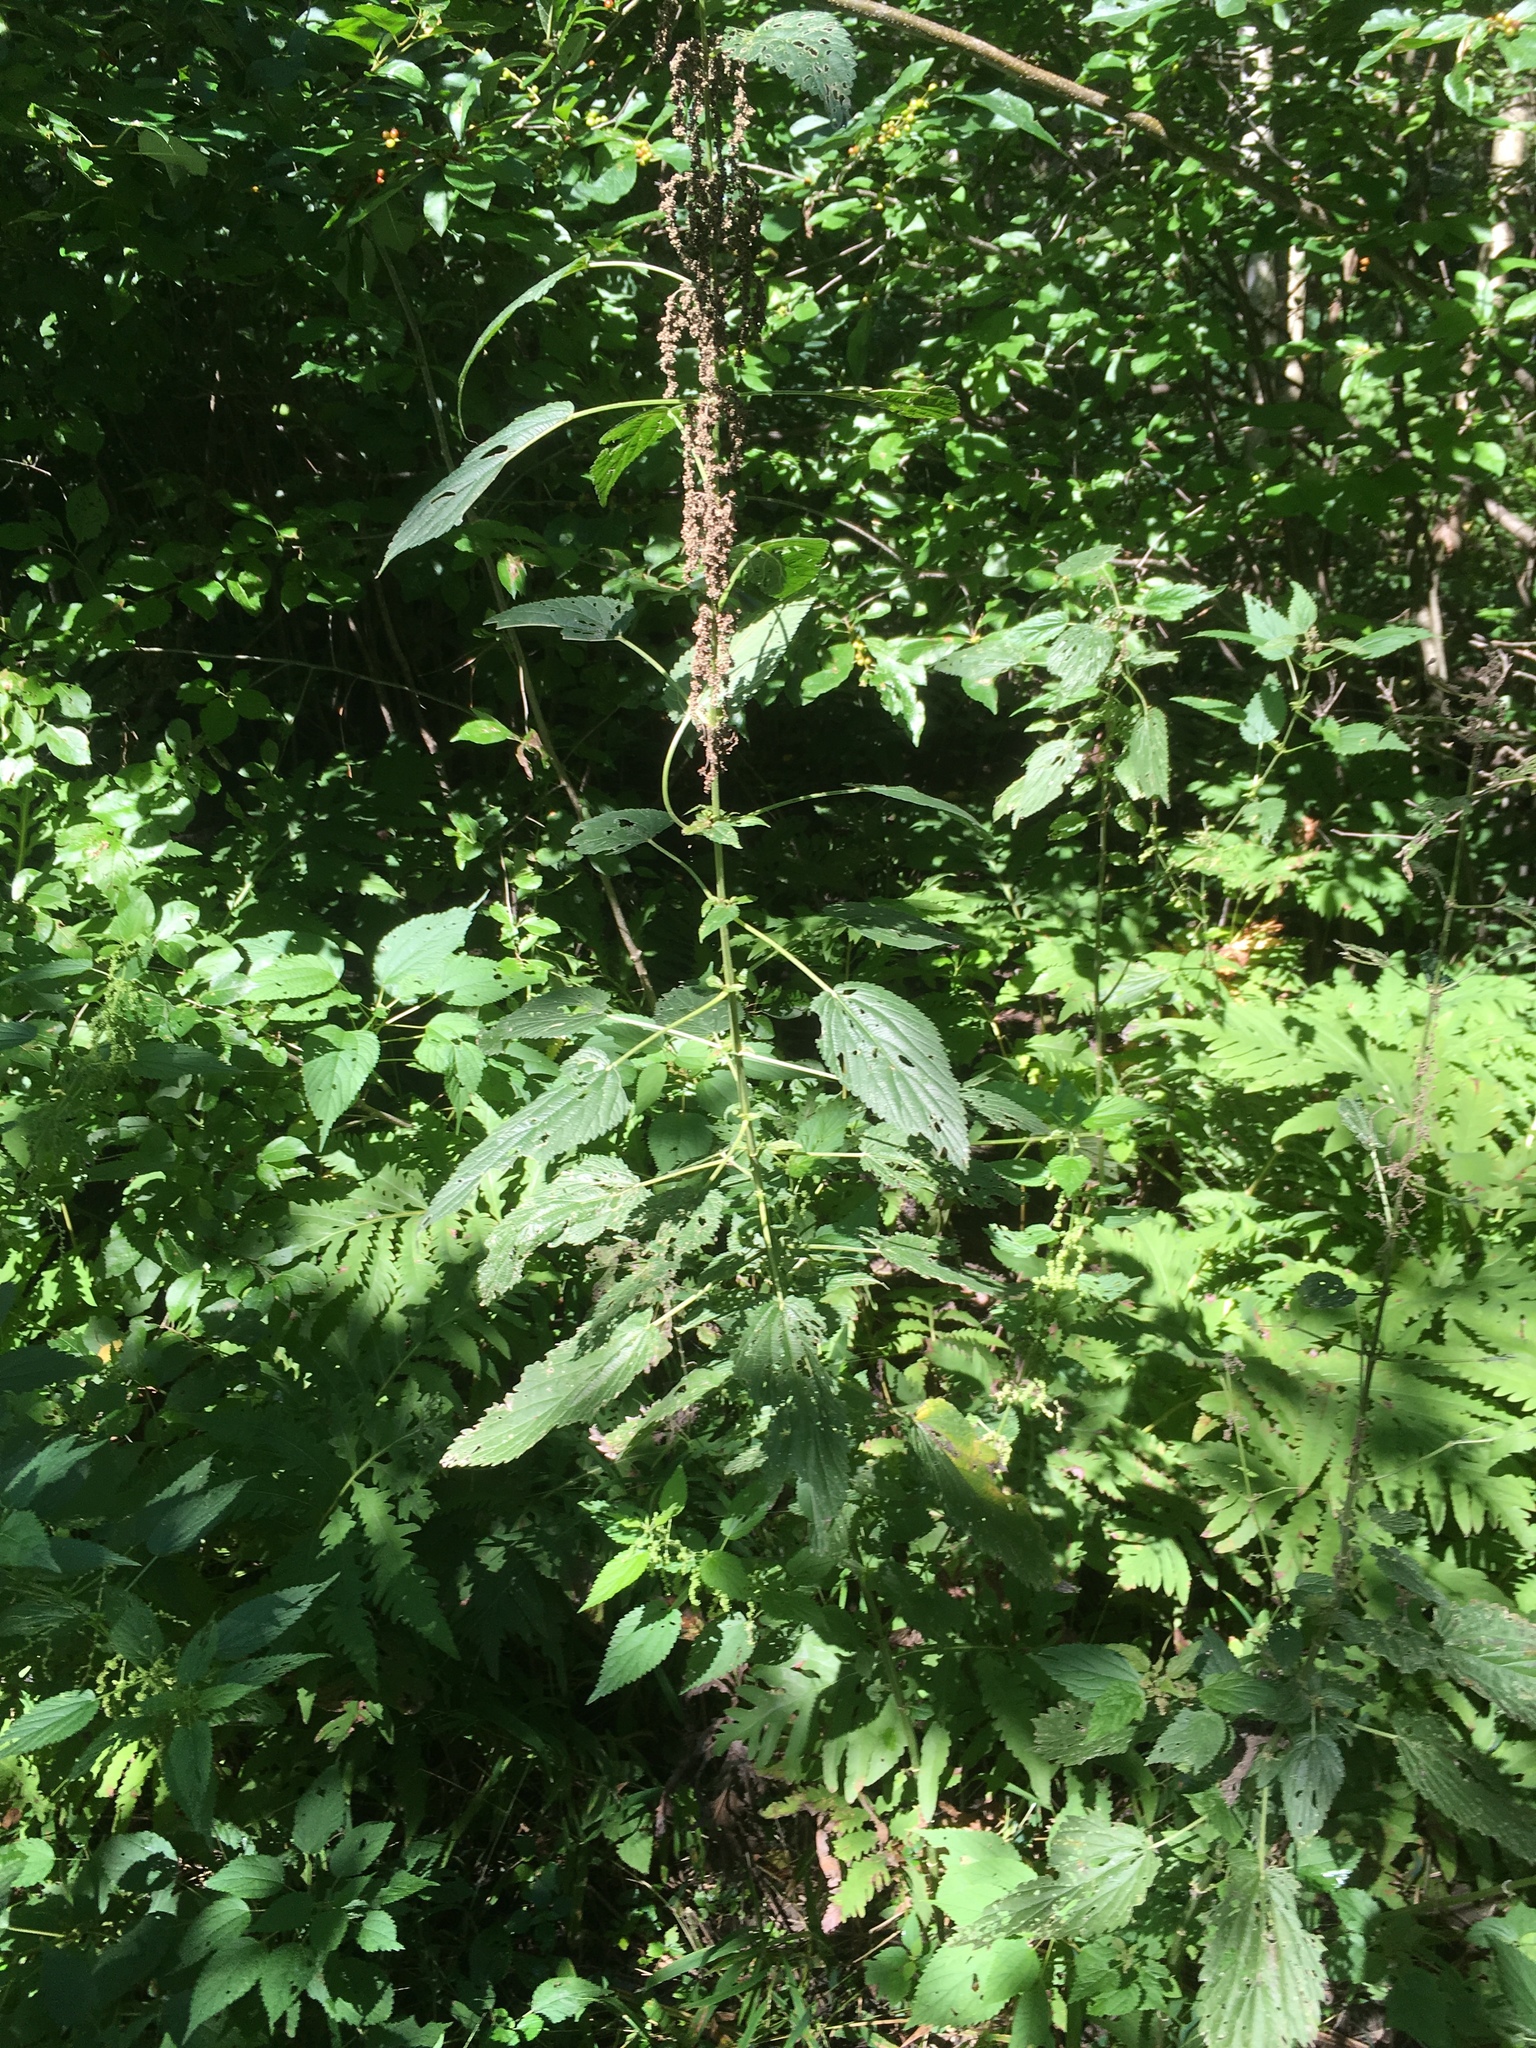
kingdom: Plantae
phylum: Tracheophyta
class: Magnoliopsida
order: Rosales
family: Urticaceae
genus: Urtica
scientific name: Urtica dioica
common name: Common nettle
